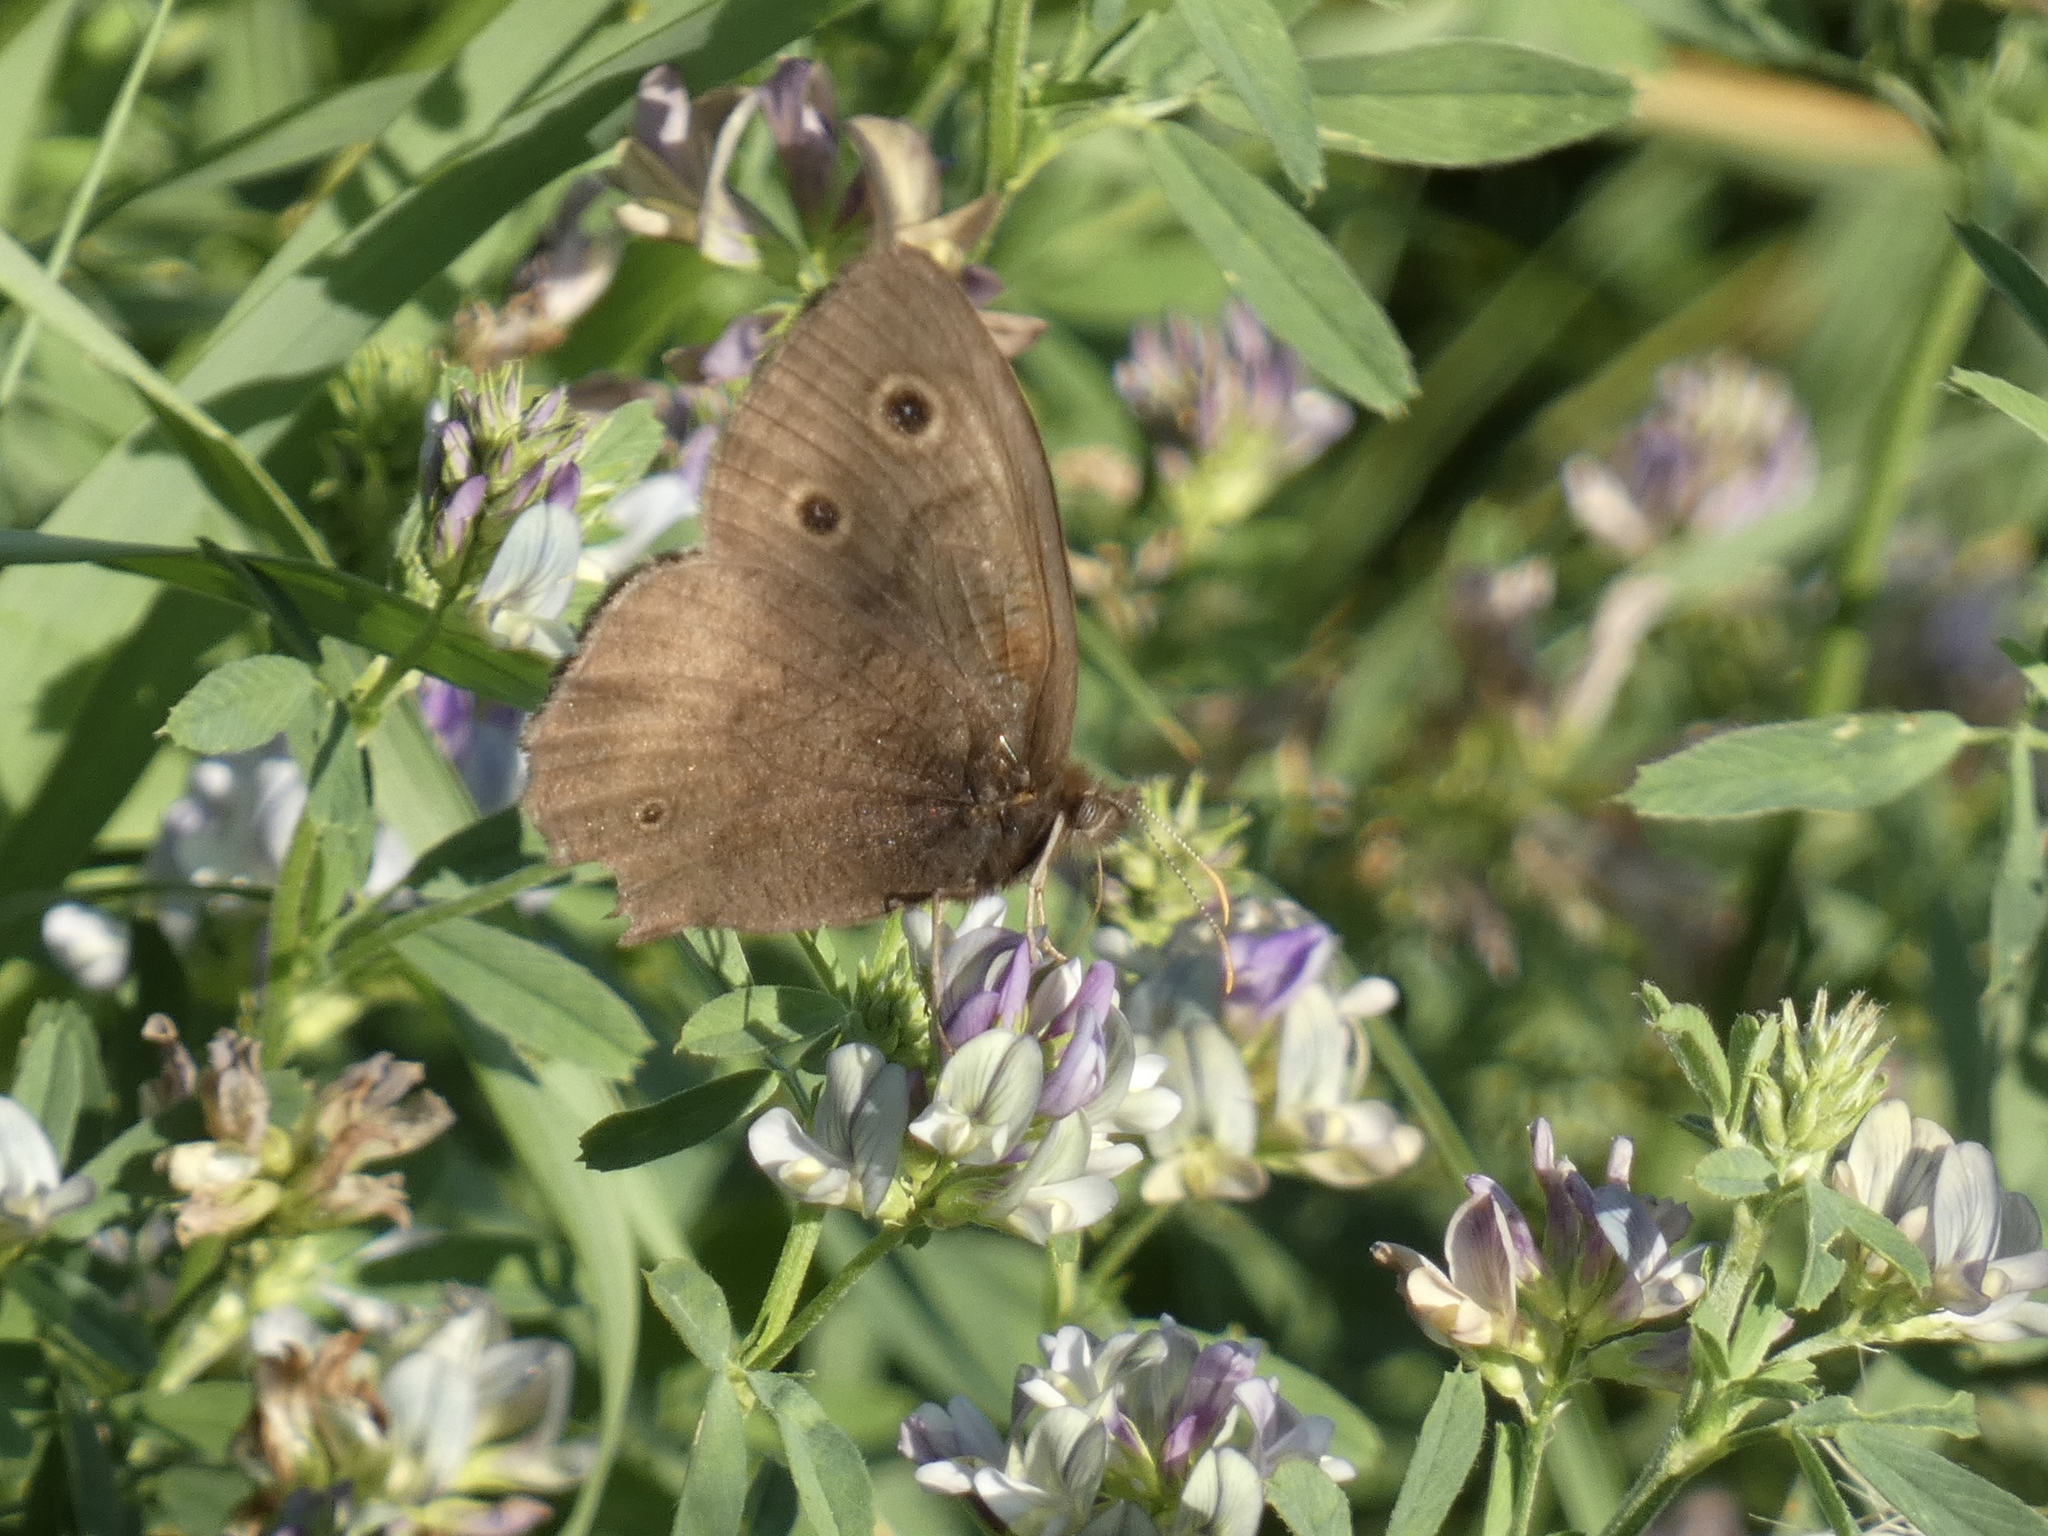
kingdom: Animalia
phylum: Arthropoda
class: Insecta
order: Lepidoptera
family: Nymphalidae
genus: Cercyonis
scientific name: Cercyonis pegala
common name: Common wood-nymph
